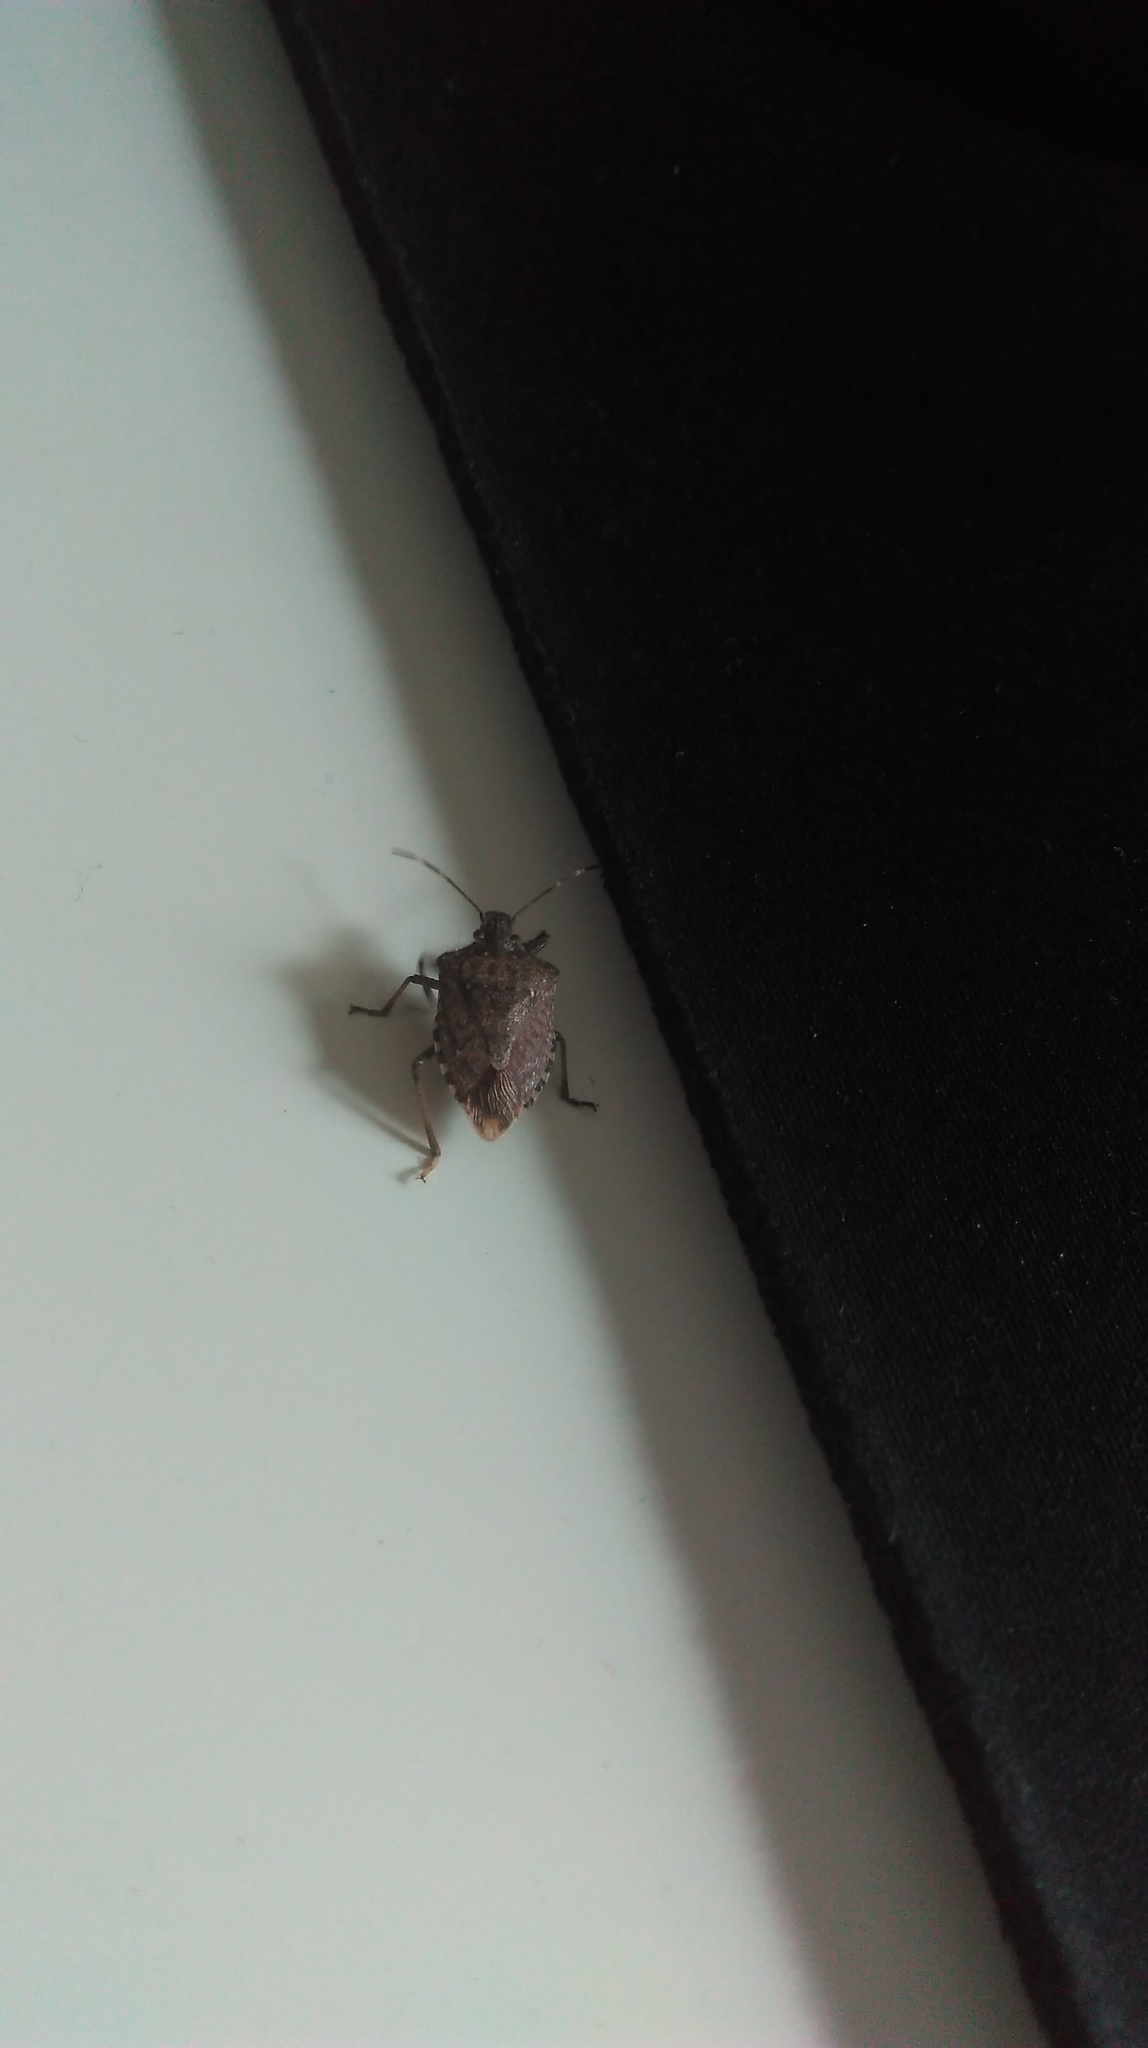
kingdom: Animalia
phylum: Arthropoda
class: Insecta
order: Hemiptera
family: Pentatomidae
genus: Halyomorpha
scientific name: Halyomorpha halys
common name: Brown marmorated stink bug
